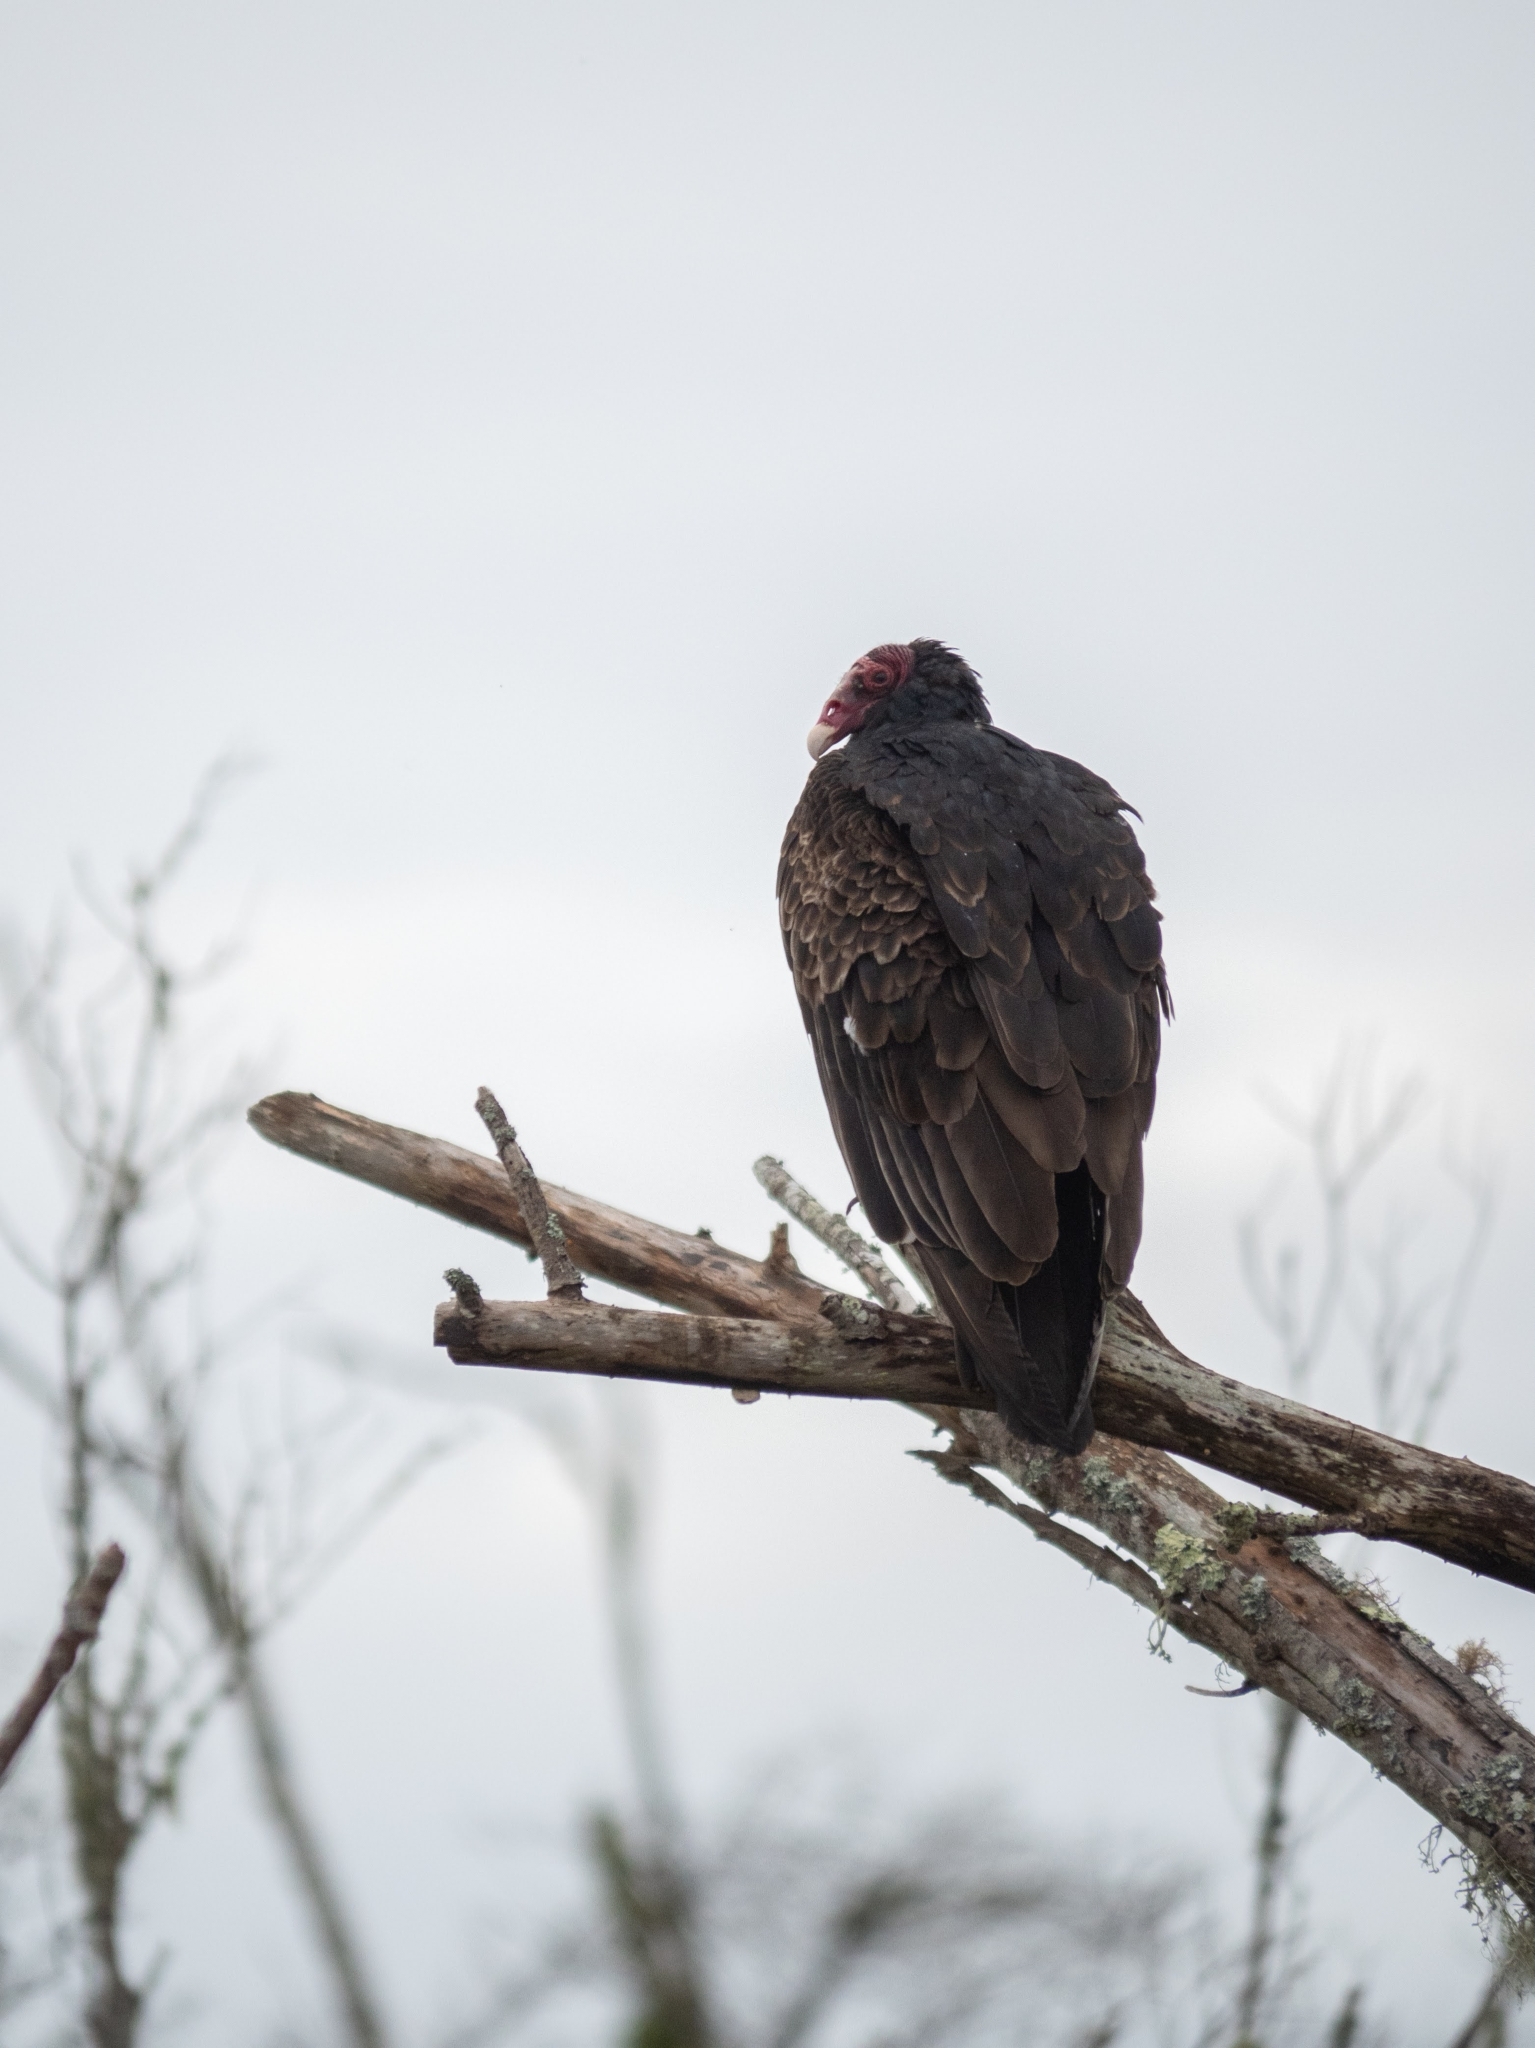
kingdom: Animalia
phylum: Chordata
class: Aves
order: Accipitriformes
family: Cathartidae
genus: Cathartes
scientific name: Cathartes aura
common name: Turkey vulture
